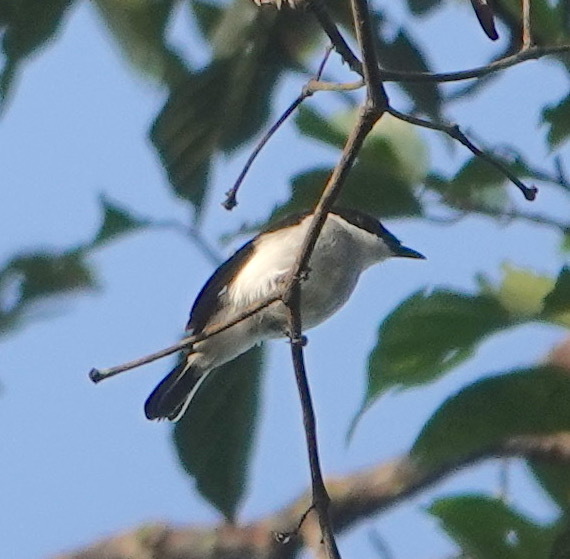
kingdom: Animalia
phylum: Chordata
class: Aves
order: Passeriformes
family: Tephrodornithidae
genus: Hemipus
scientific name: Hemipus hirundinaceus
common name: Black-winged flycatcher-shrike
